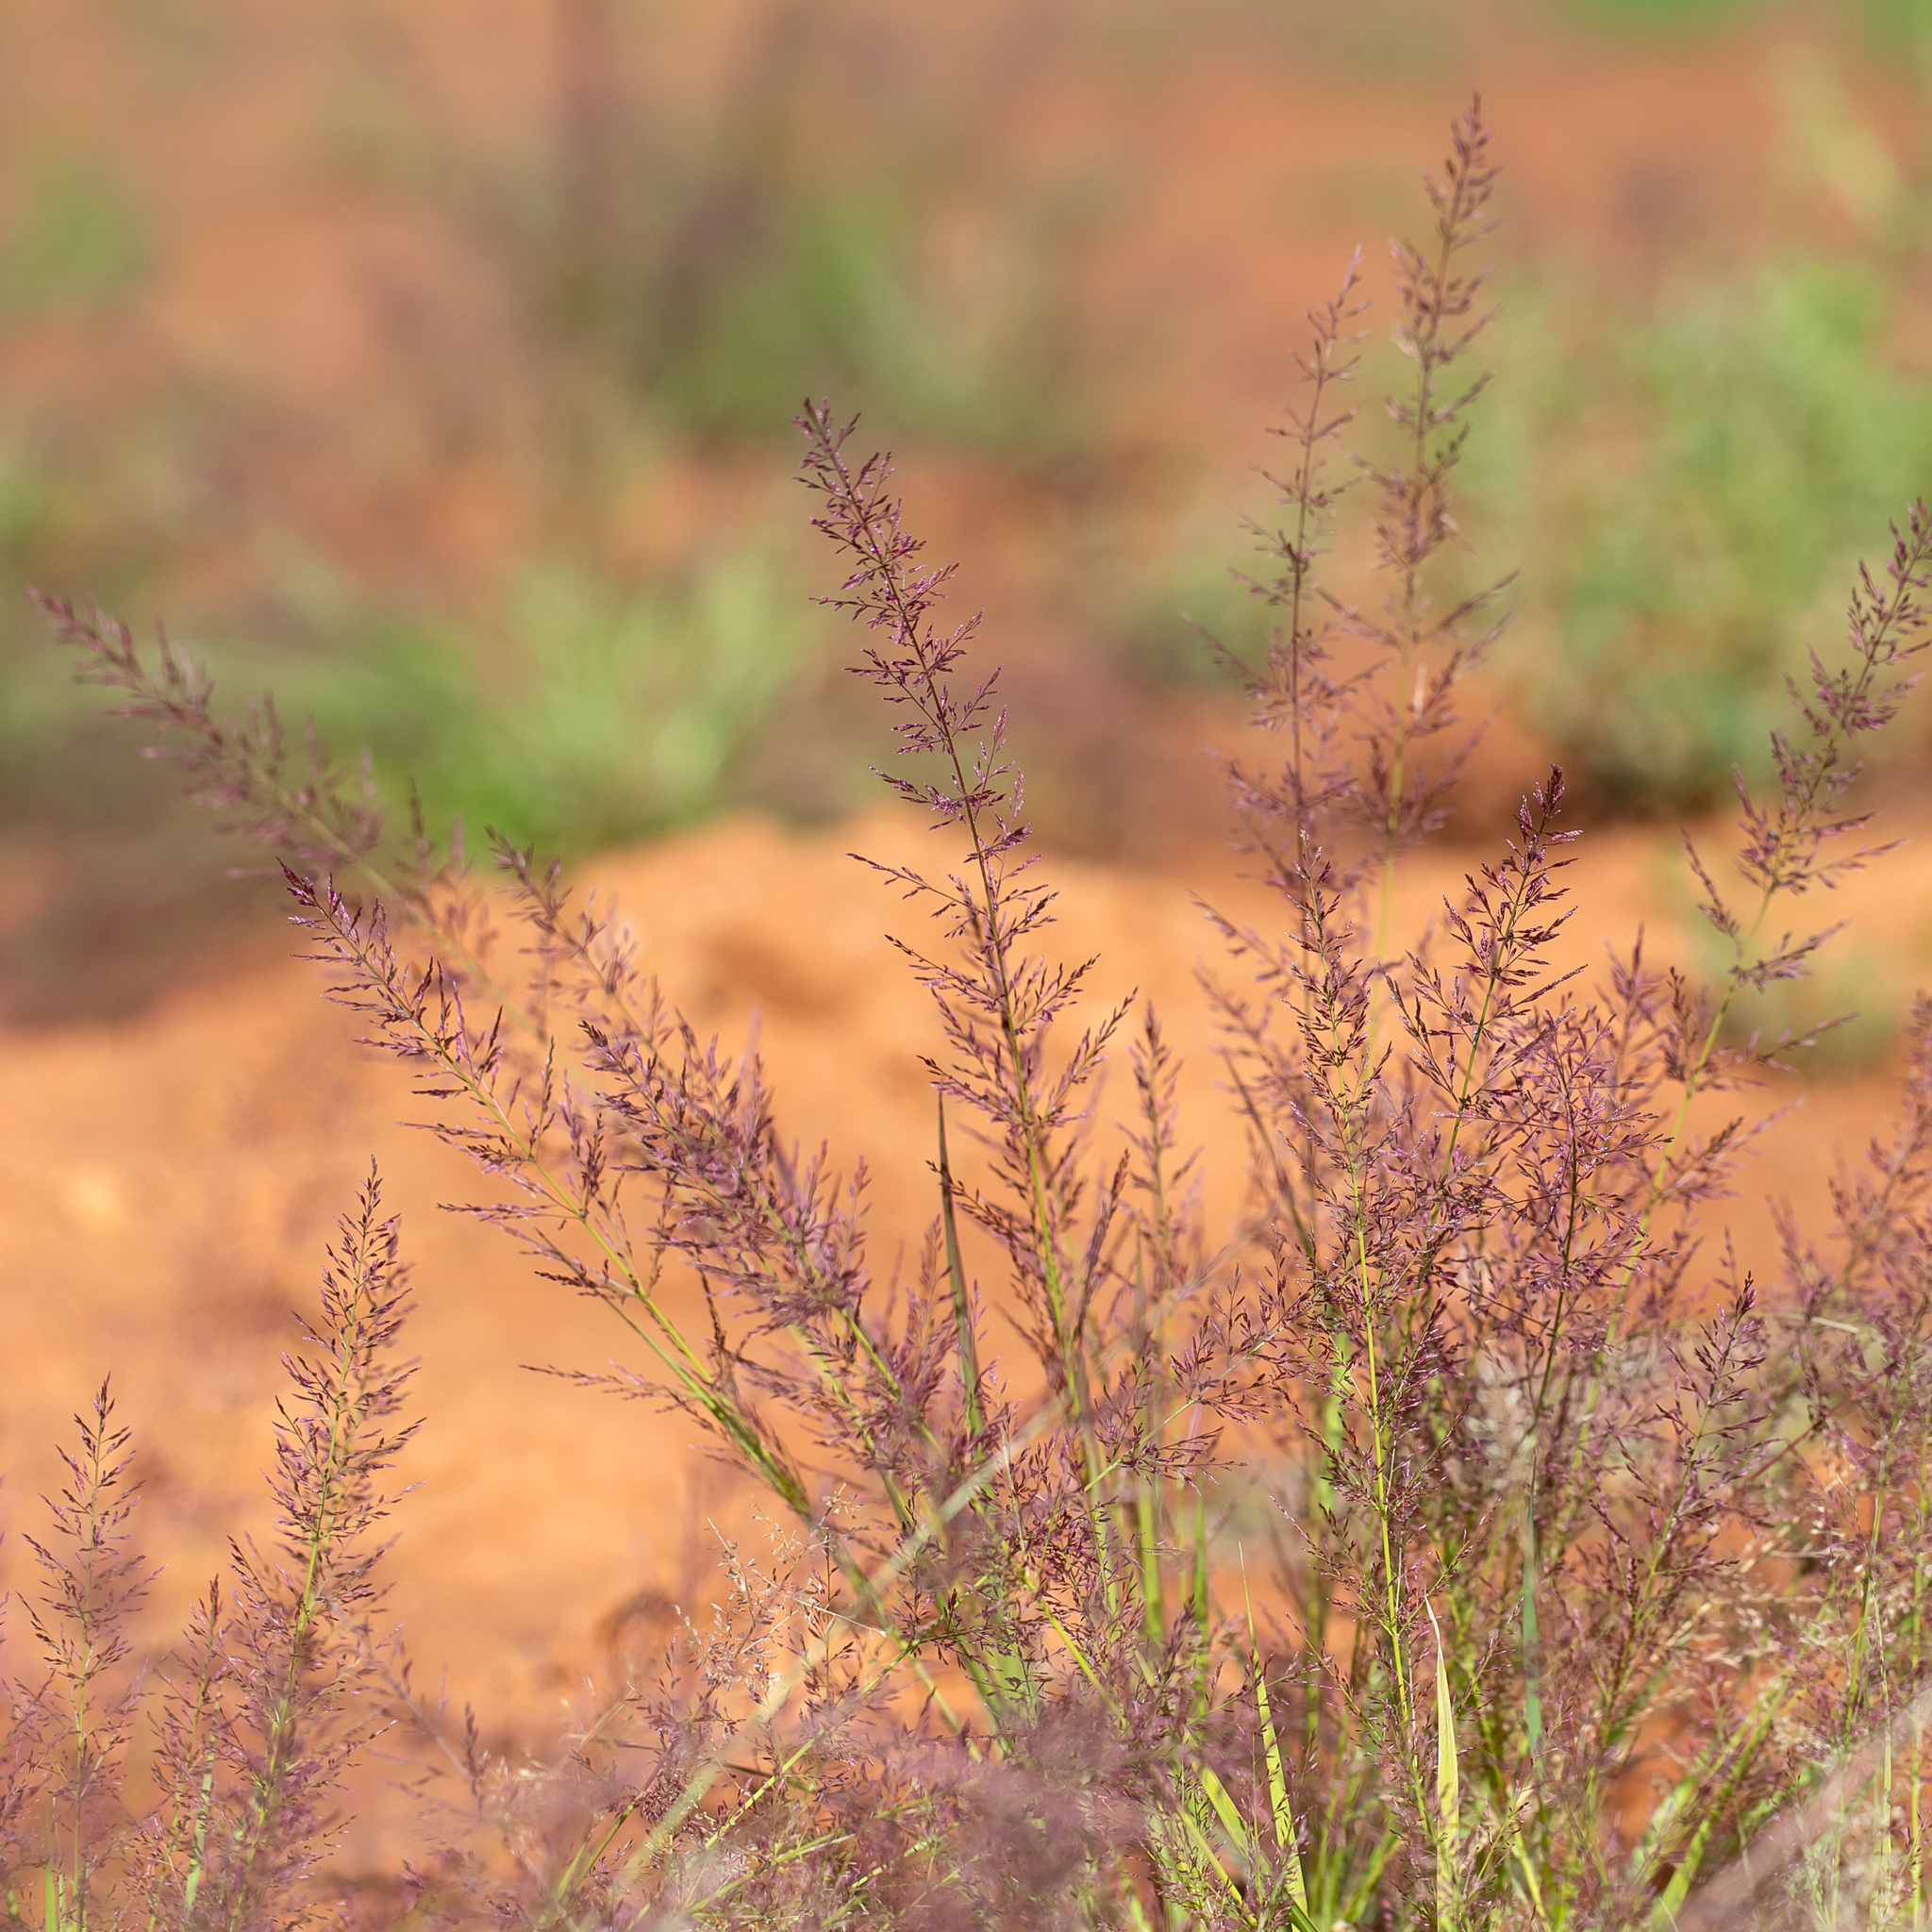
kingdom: Plantae
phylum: Tracheophyta
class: Liliopsida
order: Poales
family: Poaceae
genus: Eragrostis
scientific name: Eragrostis tenellula
